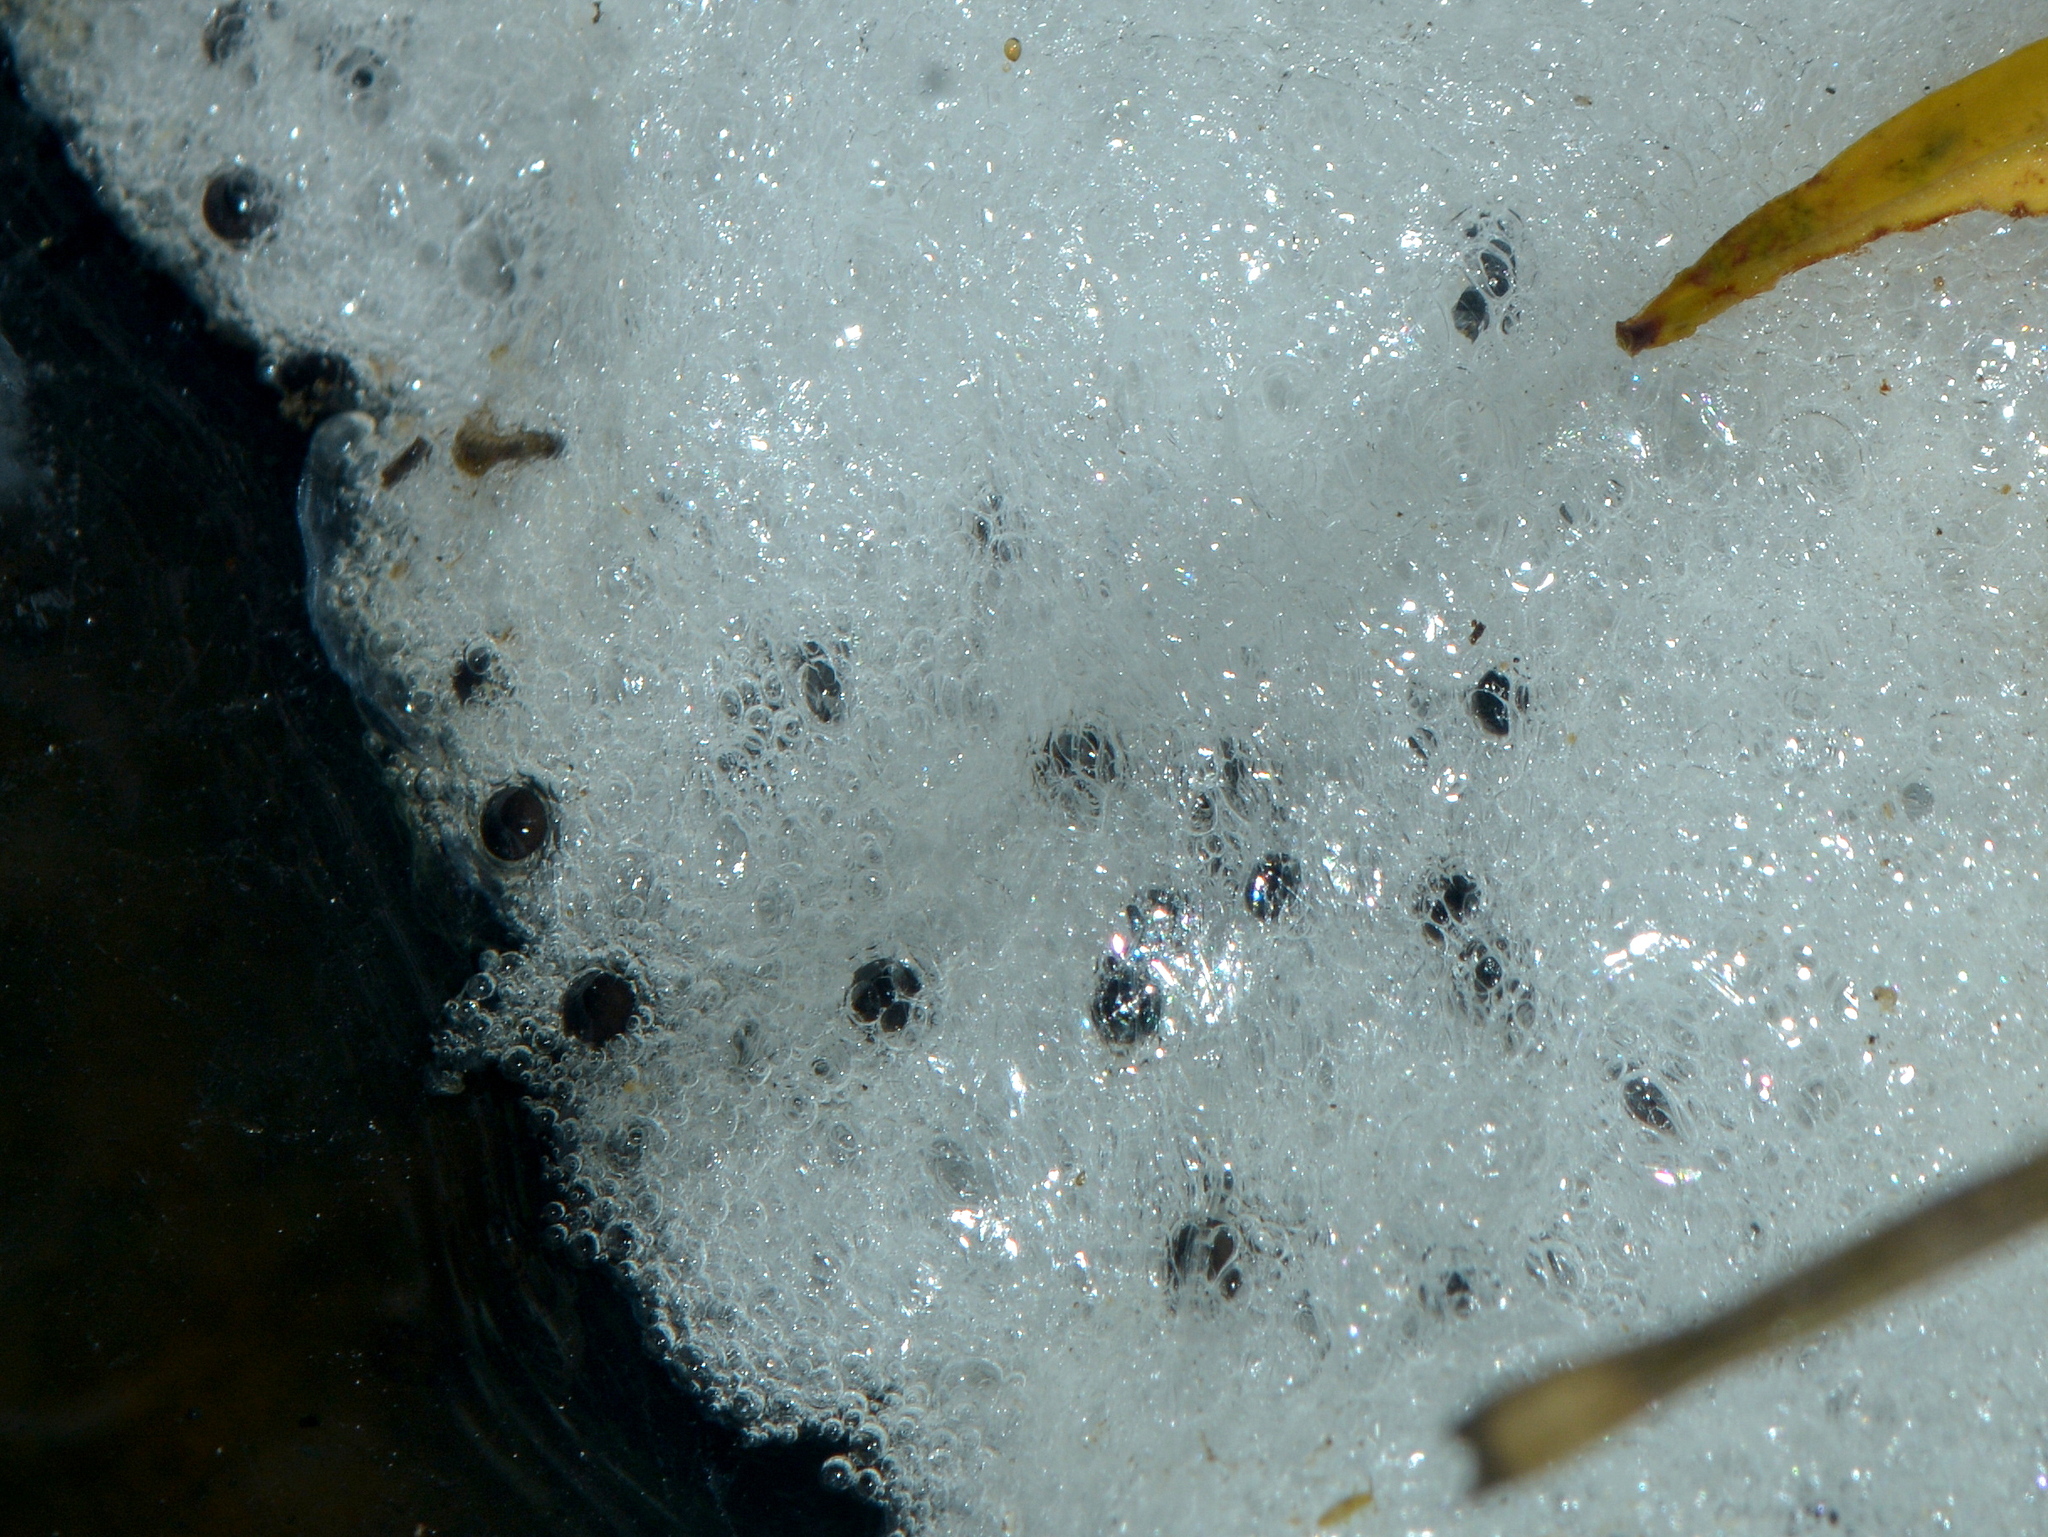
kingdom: Animalia
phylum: Chordata
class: Amphibia
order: Anura
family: Leptodactylidae
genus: Leptodactylus
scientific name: Leptodactylus luctator
